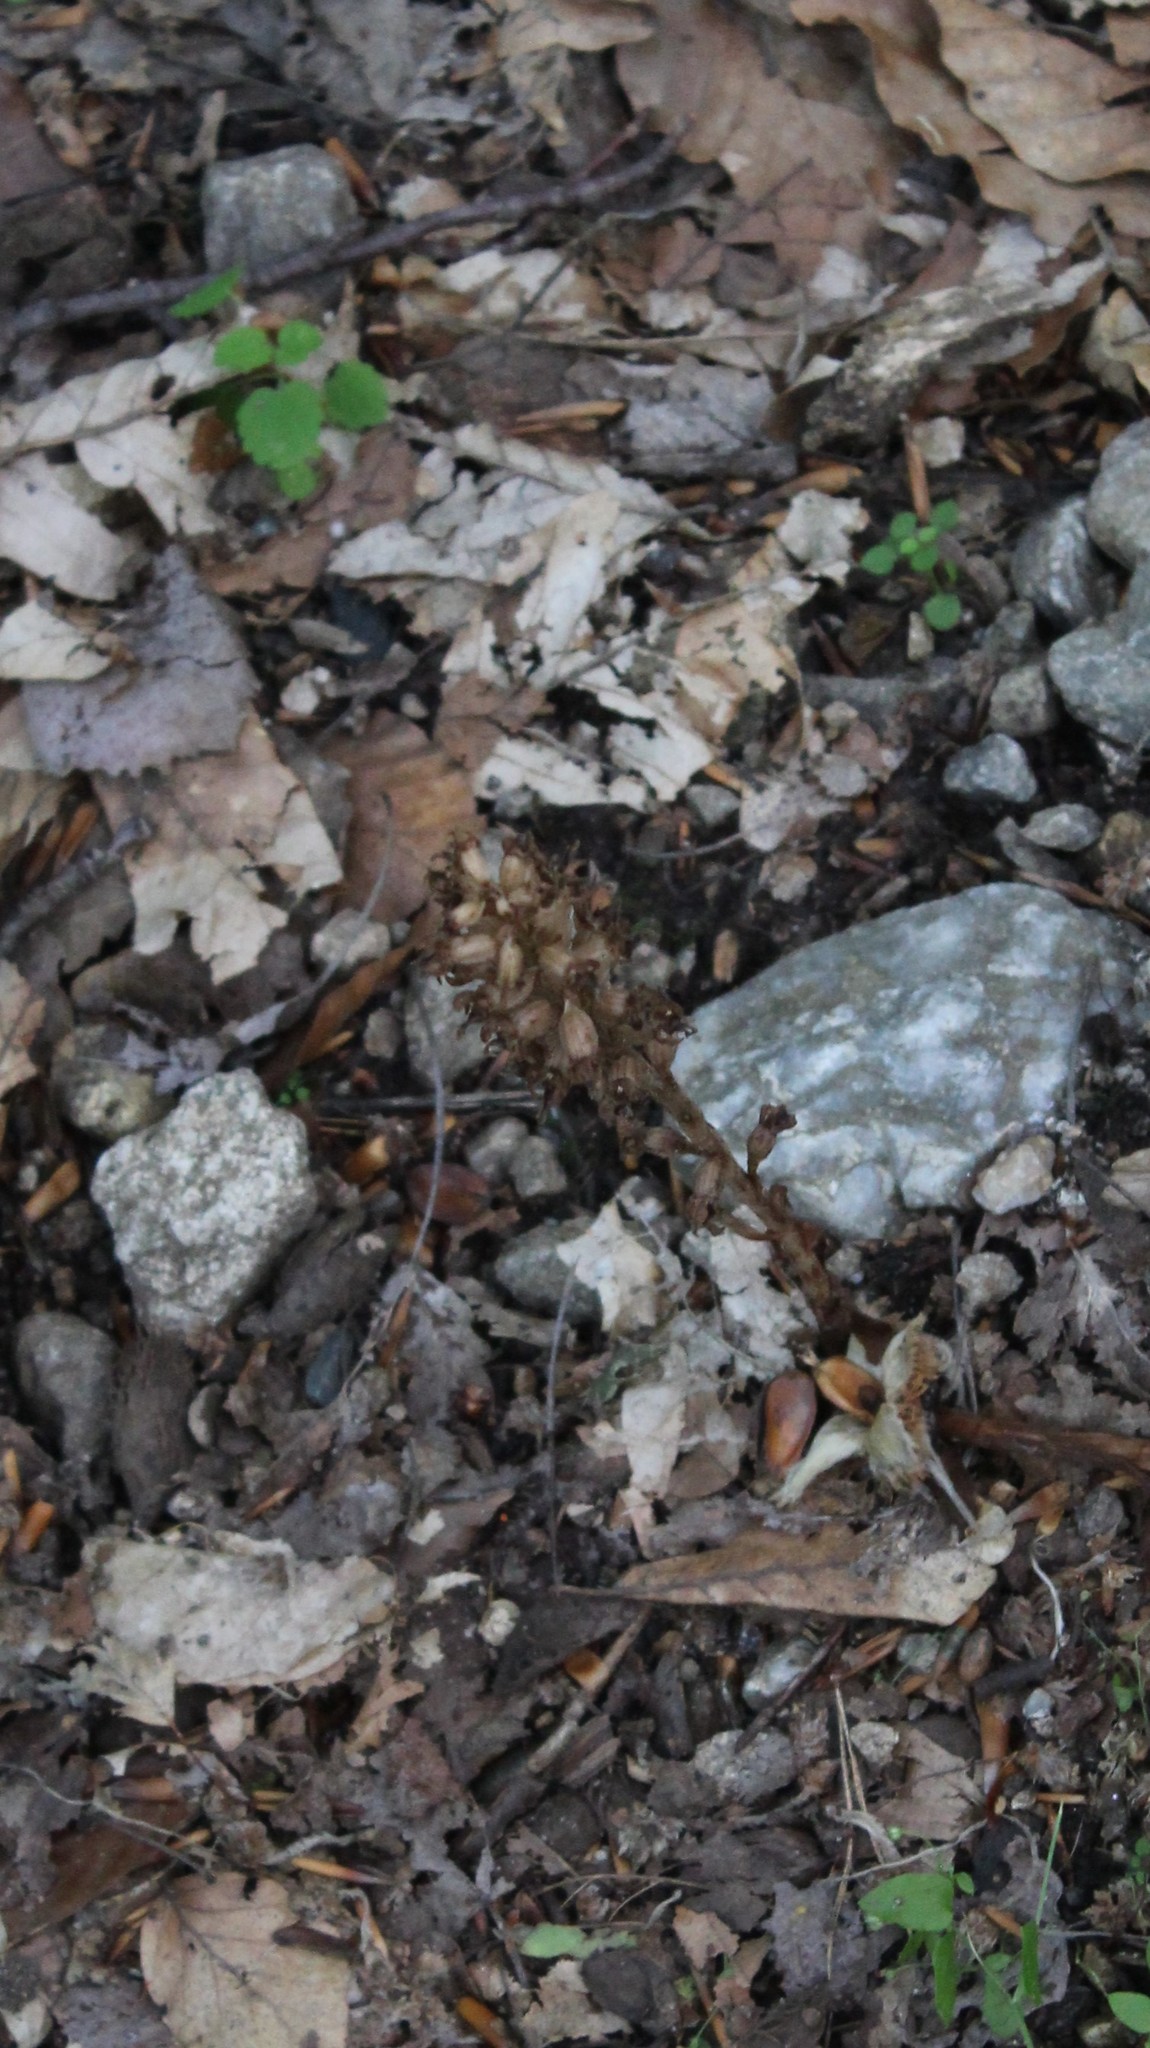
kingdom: Plantae
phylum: Tracheophyta
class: Liliopsida
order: Asparagales
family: Orchidaceae
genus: Neottia
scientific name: Neottia nidus-avis
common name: Bird's-nest orchid
